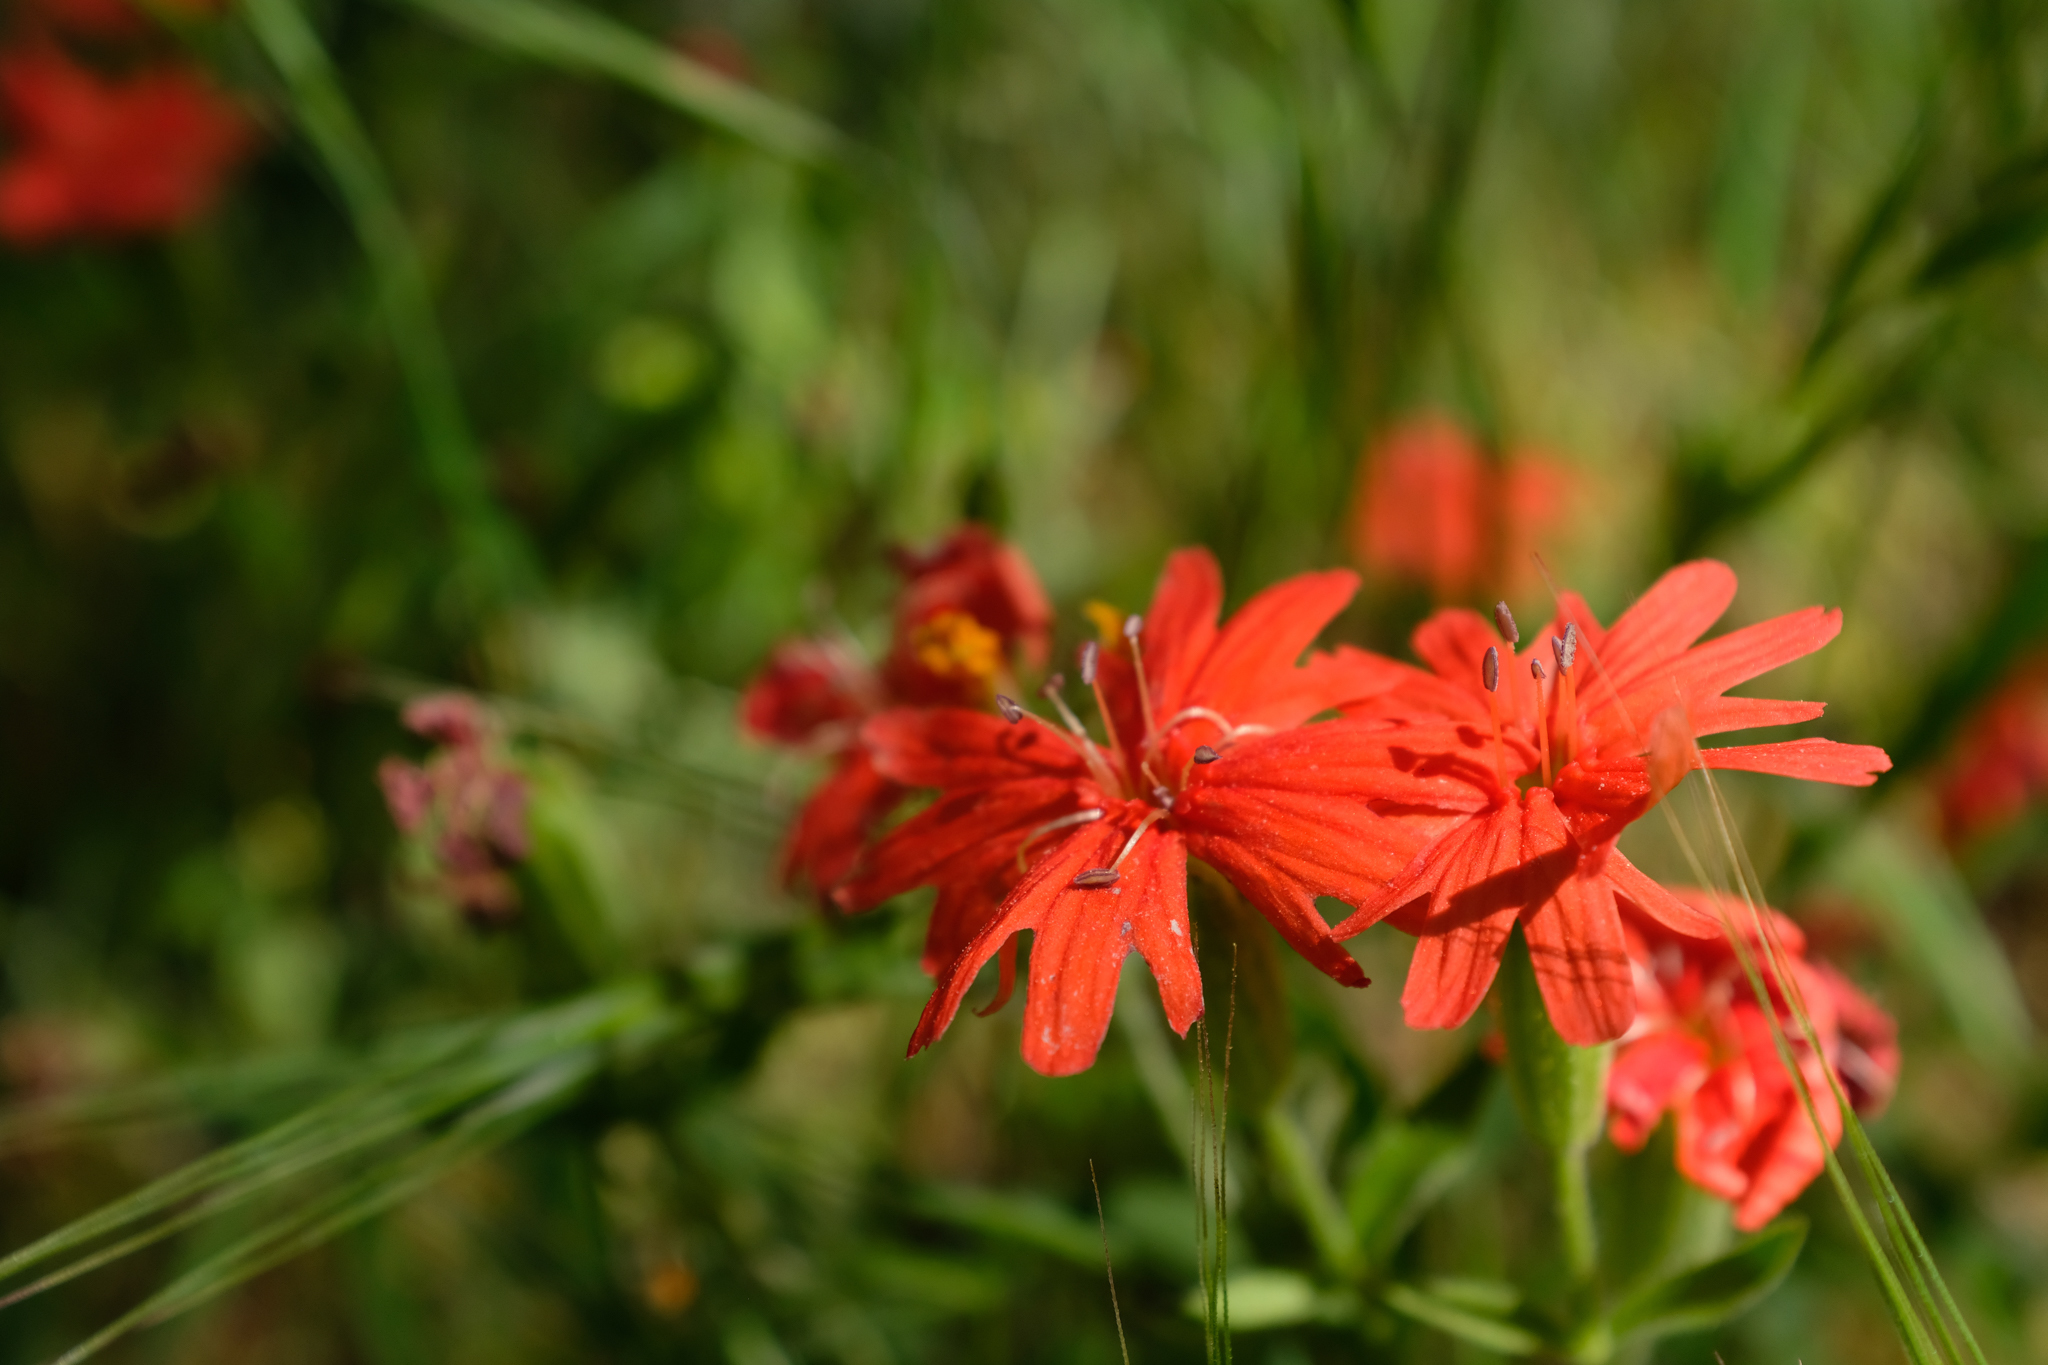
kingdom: Plantae
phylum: Tracheophyta
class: Magnoliopsida
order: Caryophyllales
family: Caryophyllaceae
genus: Silene
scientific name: Silene laciniata
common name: Indian-pink
